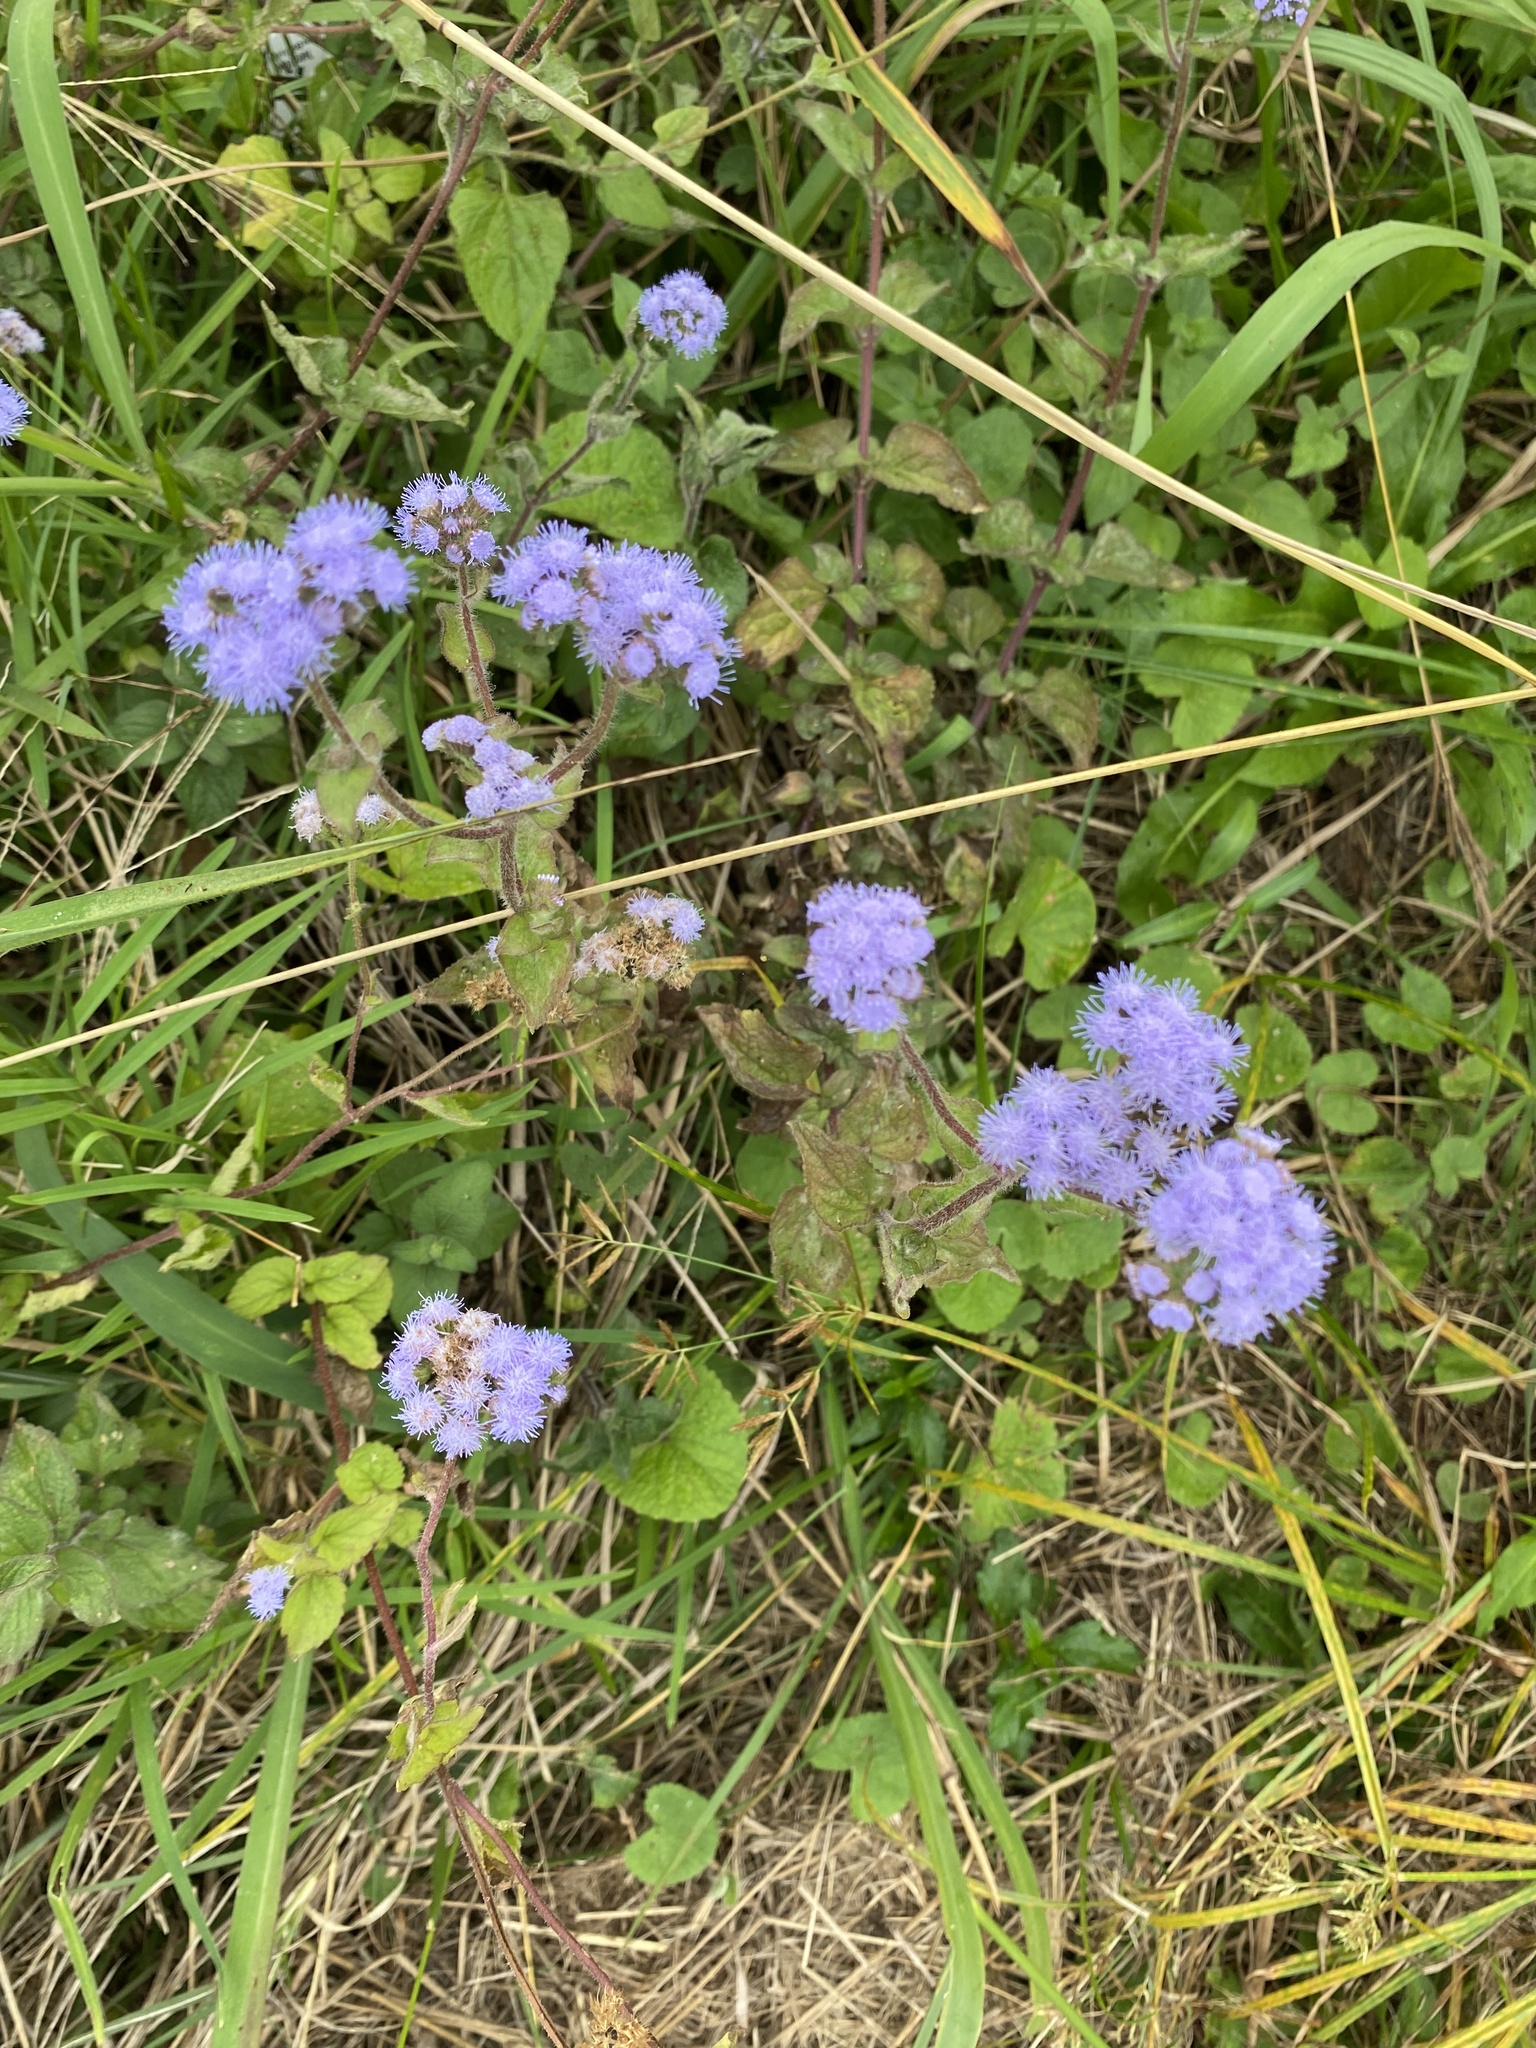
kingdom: Plantae
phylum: Tracheophyta
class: Magnoliopsida
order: Asterales
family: Asteraceae
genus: Ageratum
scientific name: Ageratum houstonianum
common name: Bluemink
